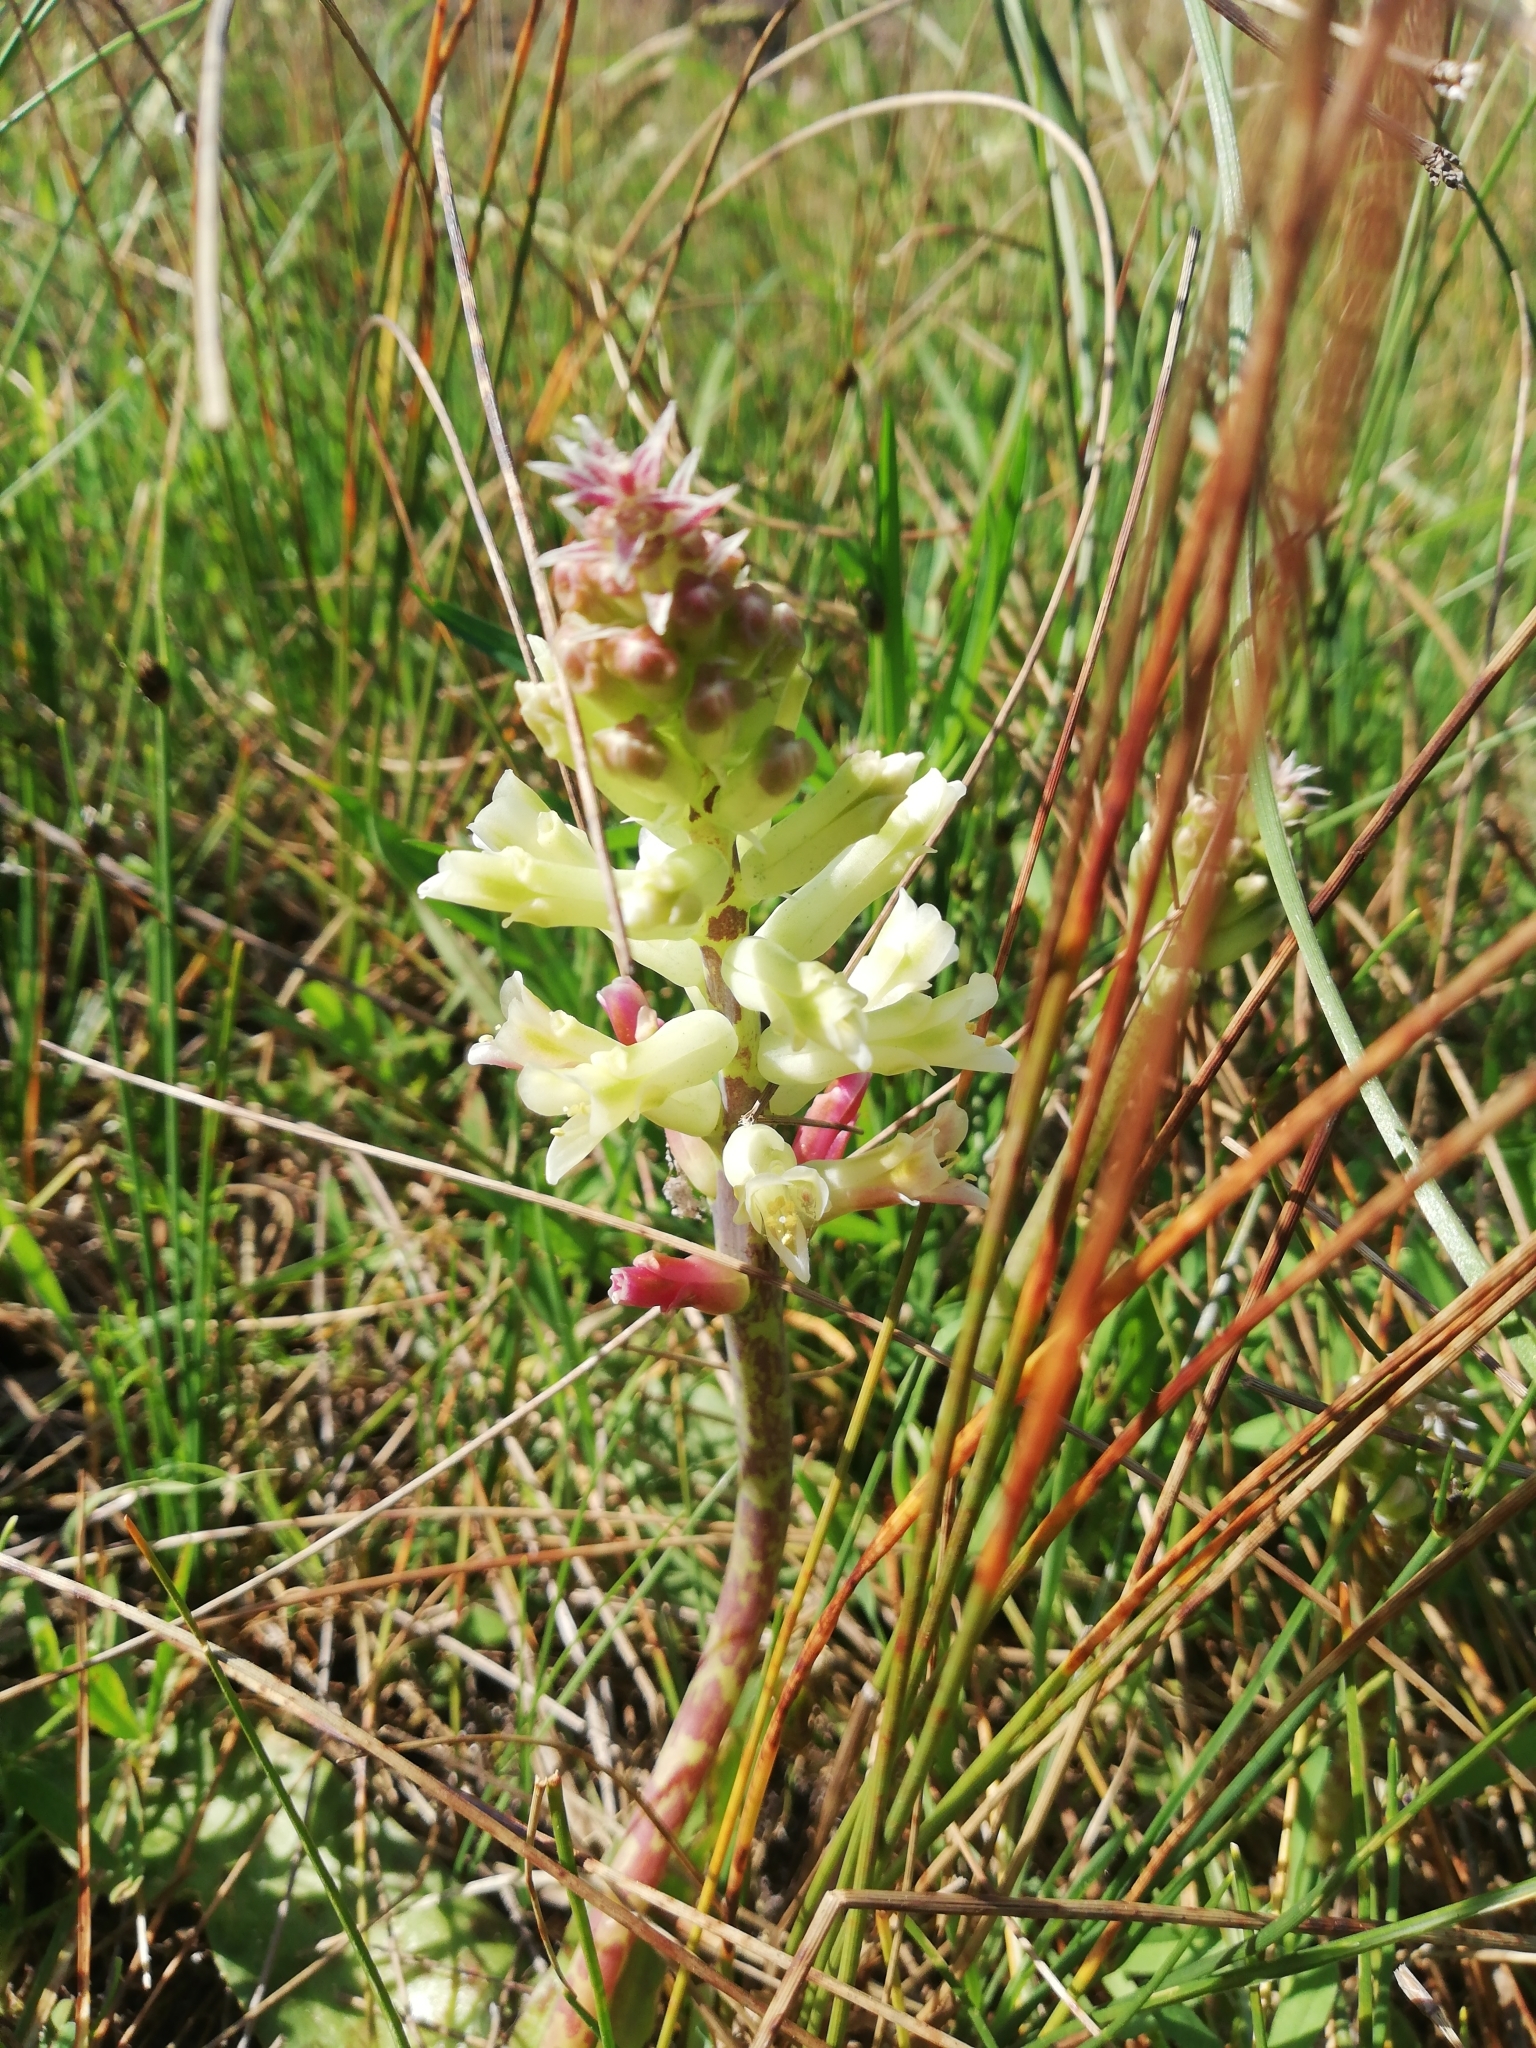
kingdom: Plantae
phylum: Tracheophyta
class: Liliopsida
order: Asparagales
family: Asparagaceae
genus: Lachenalia
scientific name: Lachenalia orchioides
